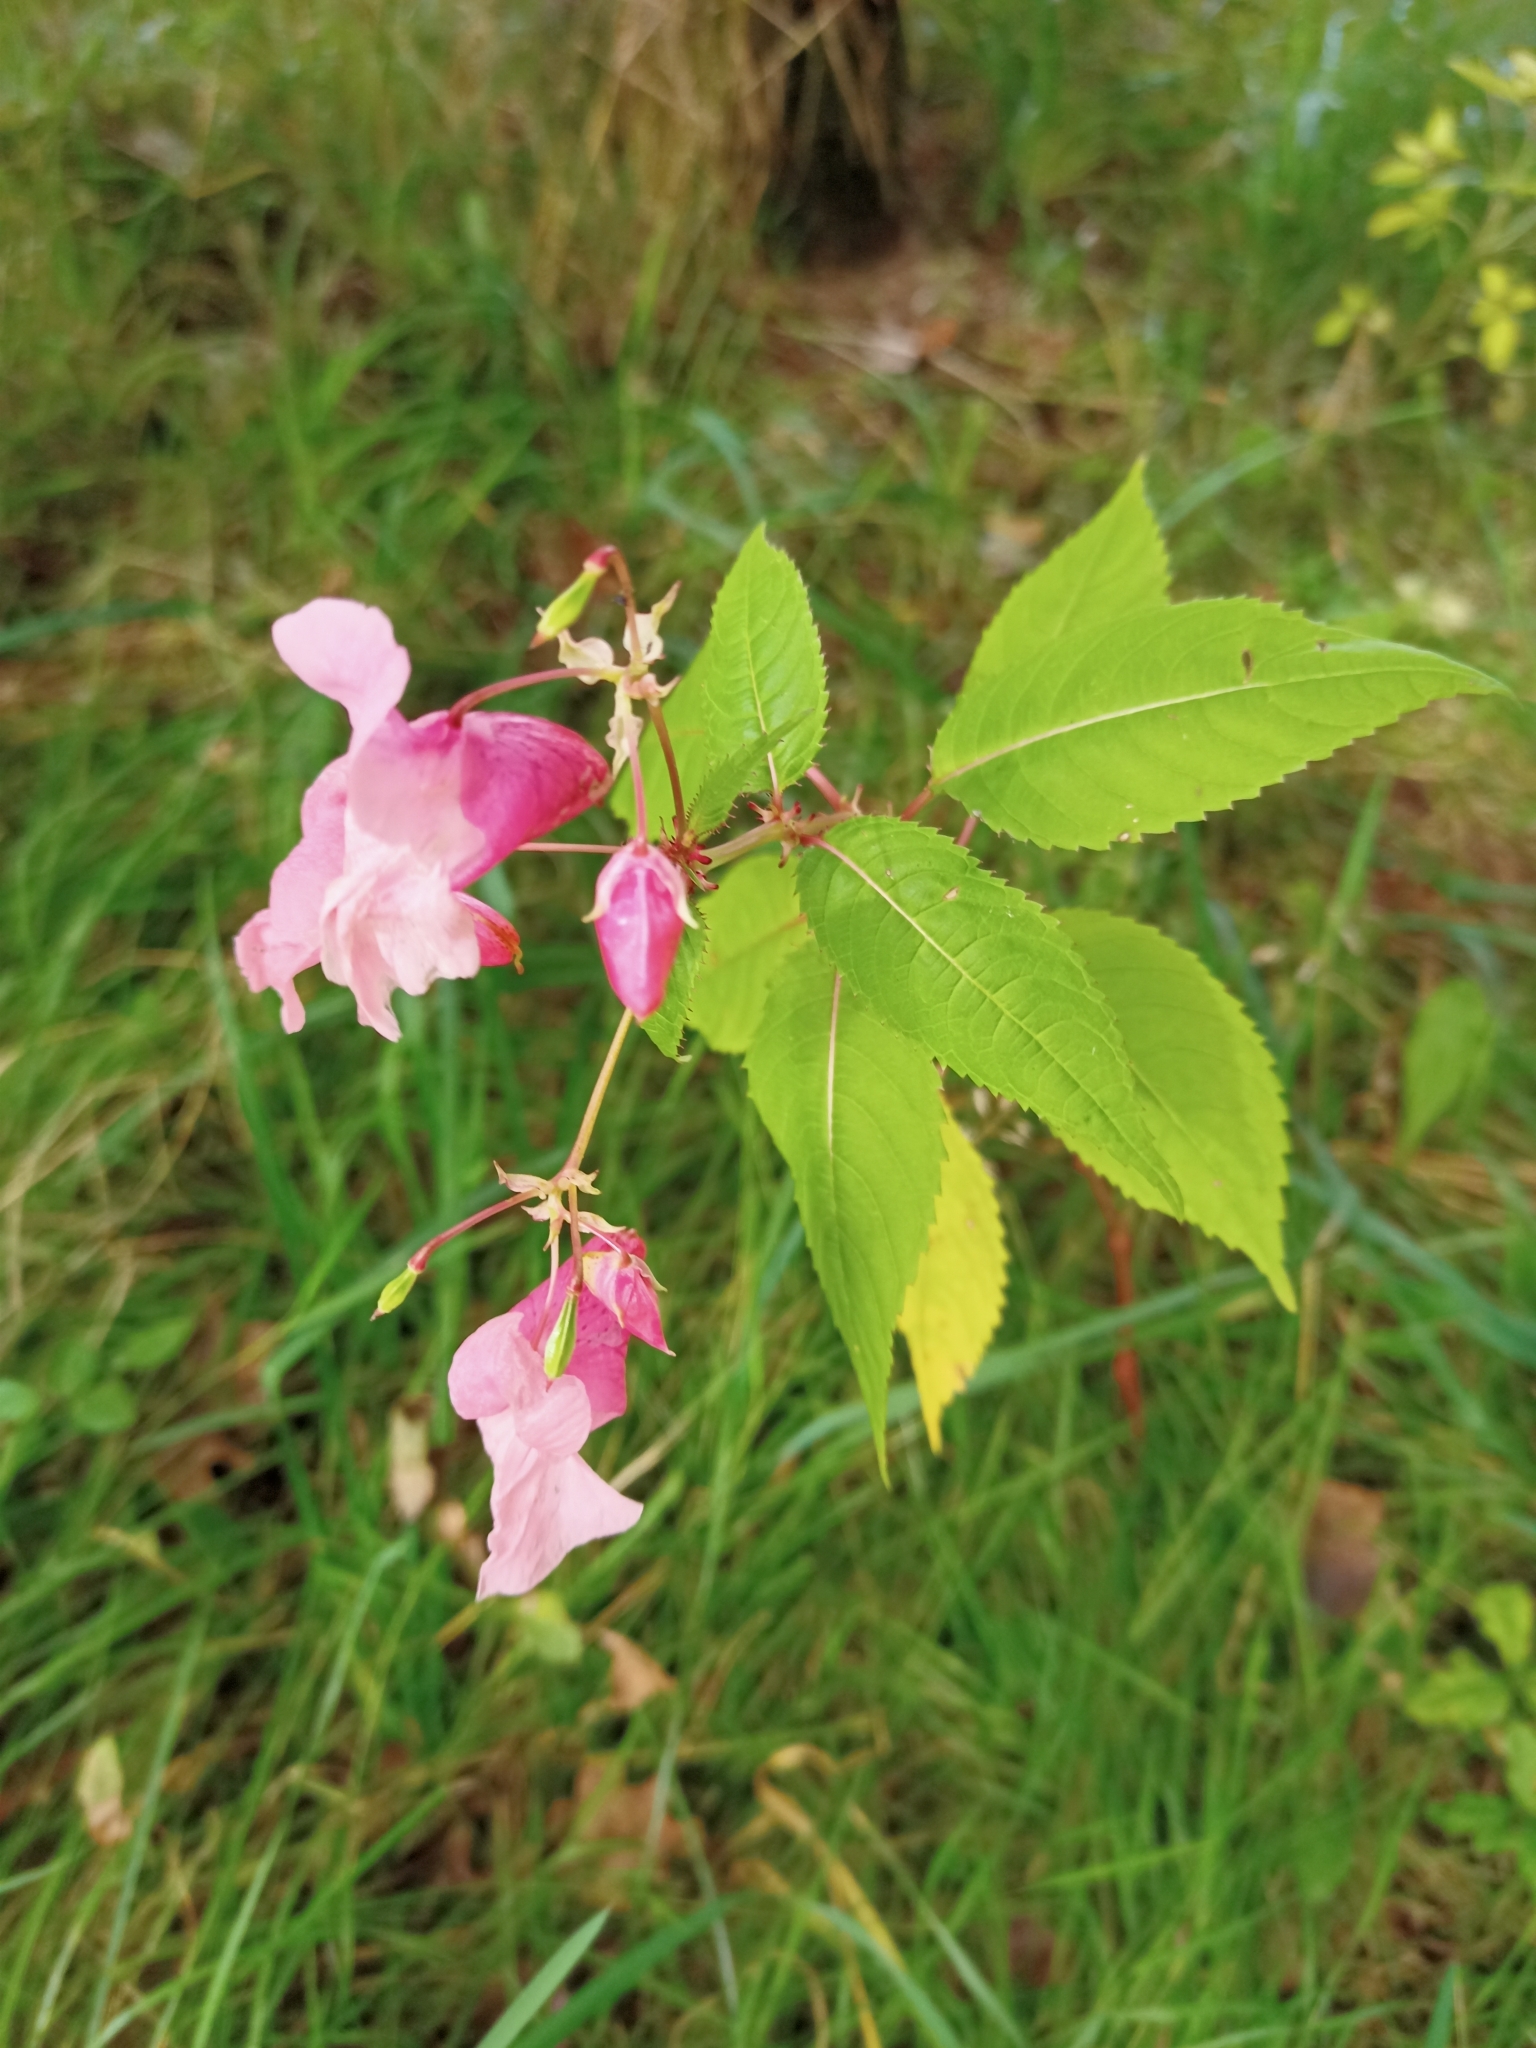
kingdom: Plantae
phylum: Tracheophyta
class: Magnoliopsida
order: Ericales
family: Balsaminaceae
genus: Impatiens
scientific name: Impatiens glandulifera
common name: Himalayan balsam
